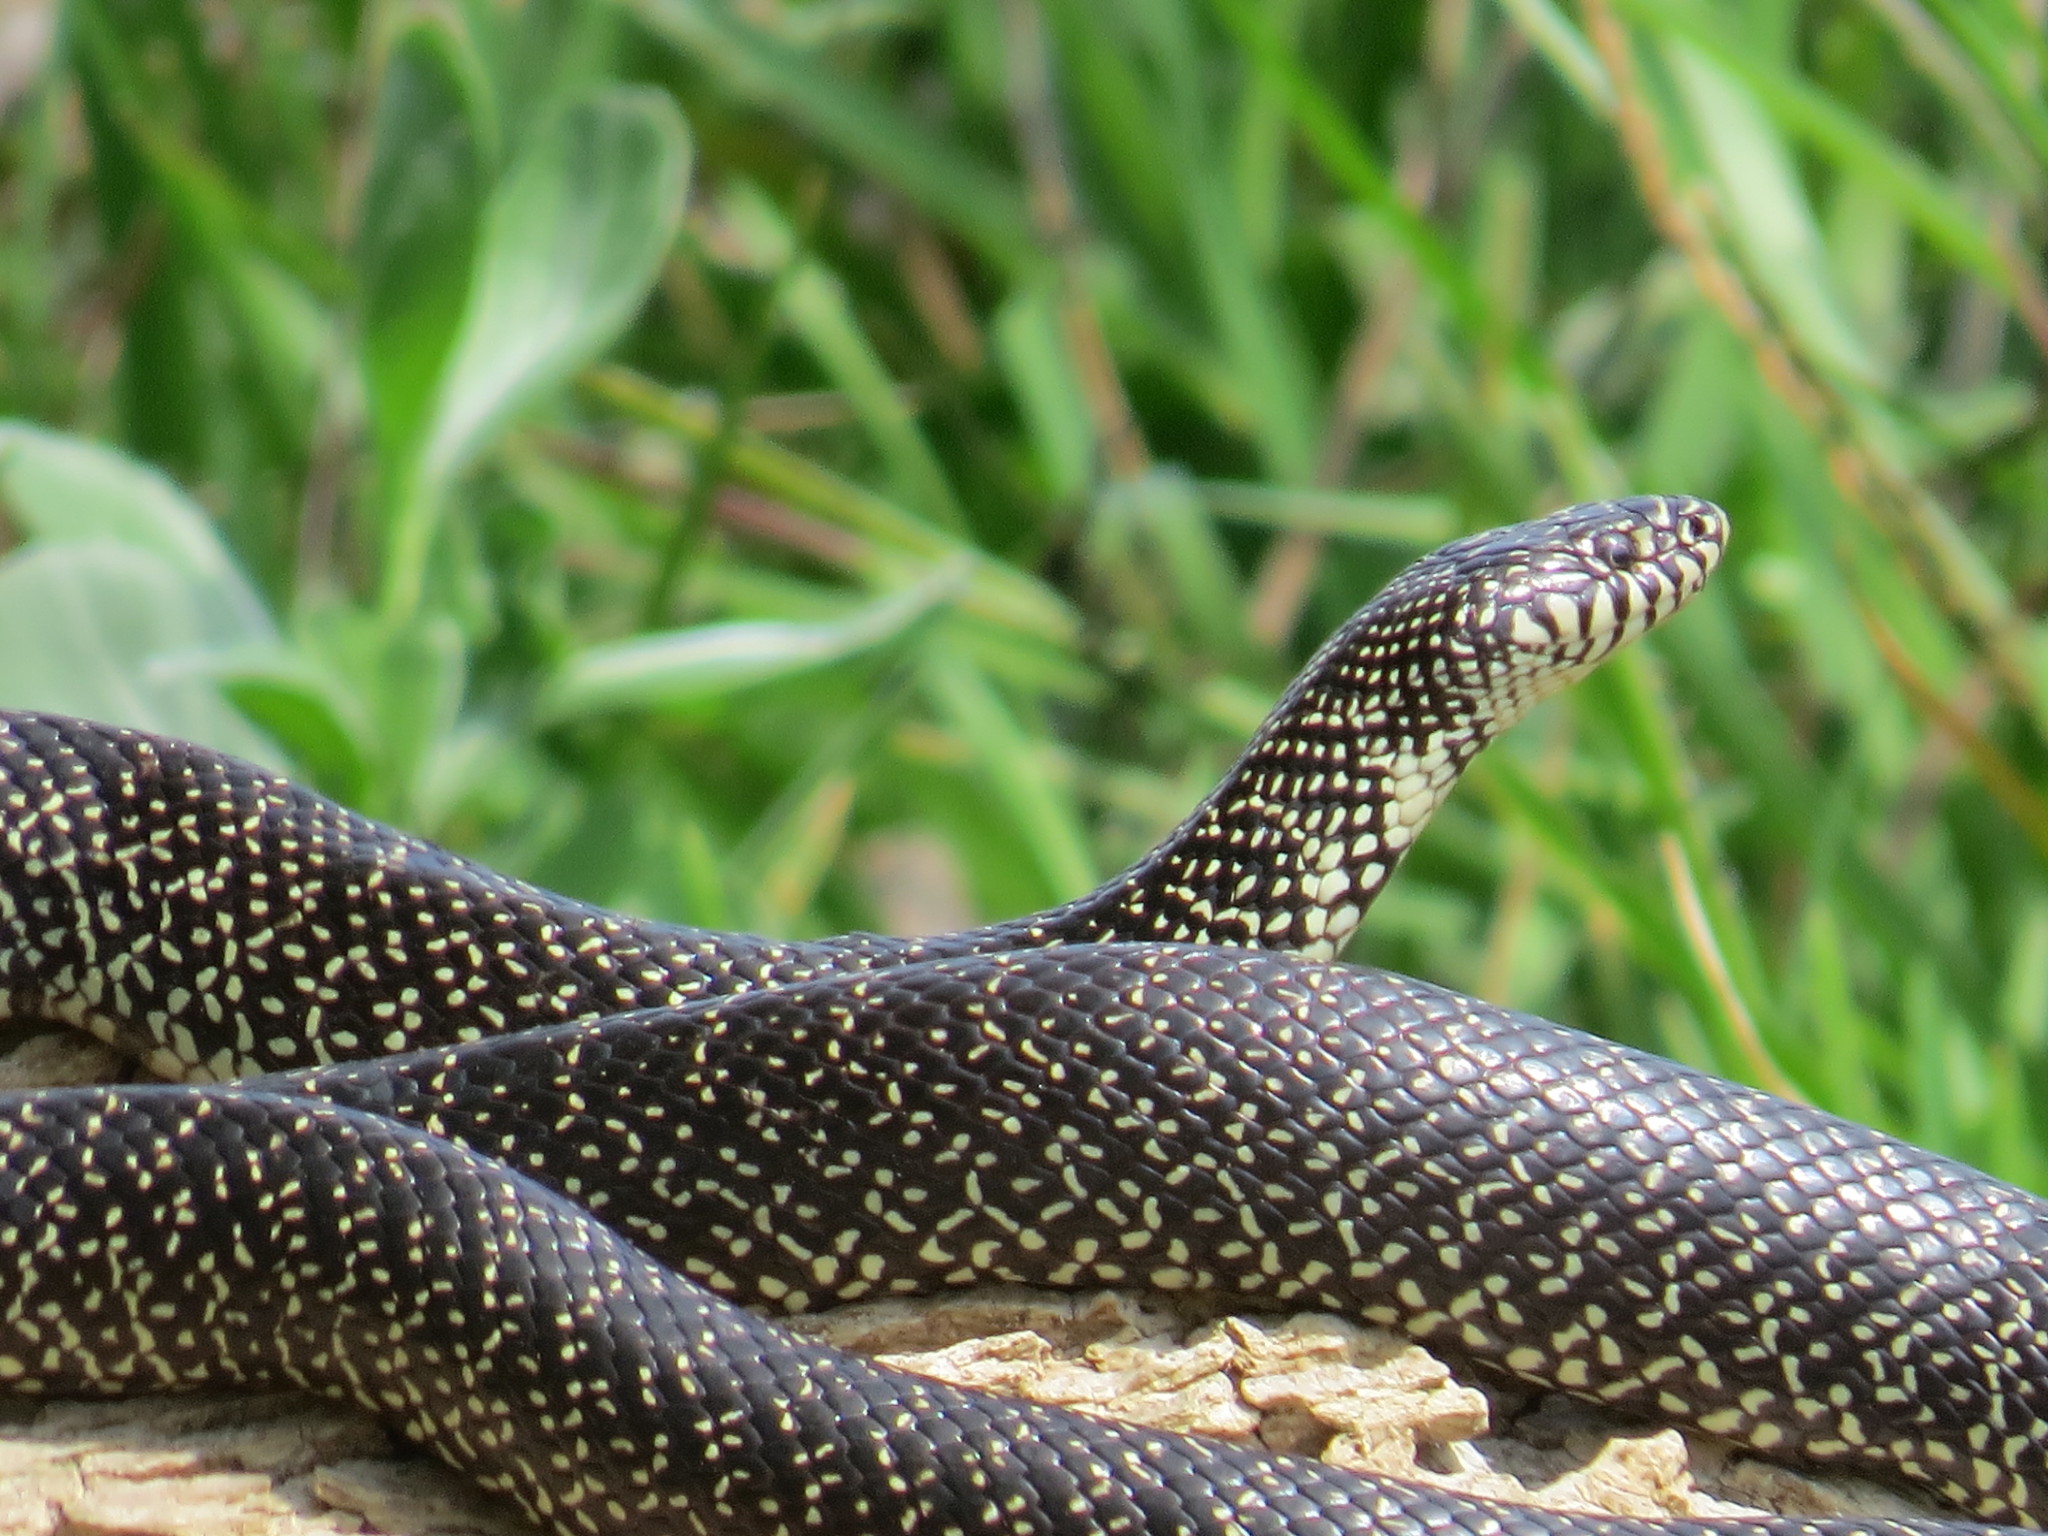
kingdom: Animalia
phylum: Chordata
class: Squamata
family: Colubridae
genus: Lampropeltis
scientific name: Lampropeltis holbrooki
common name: Speckled kingsnake
